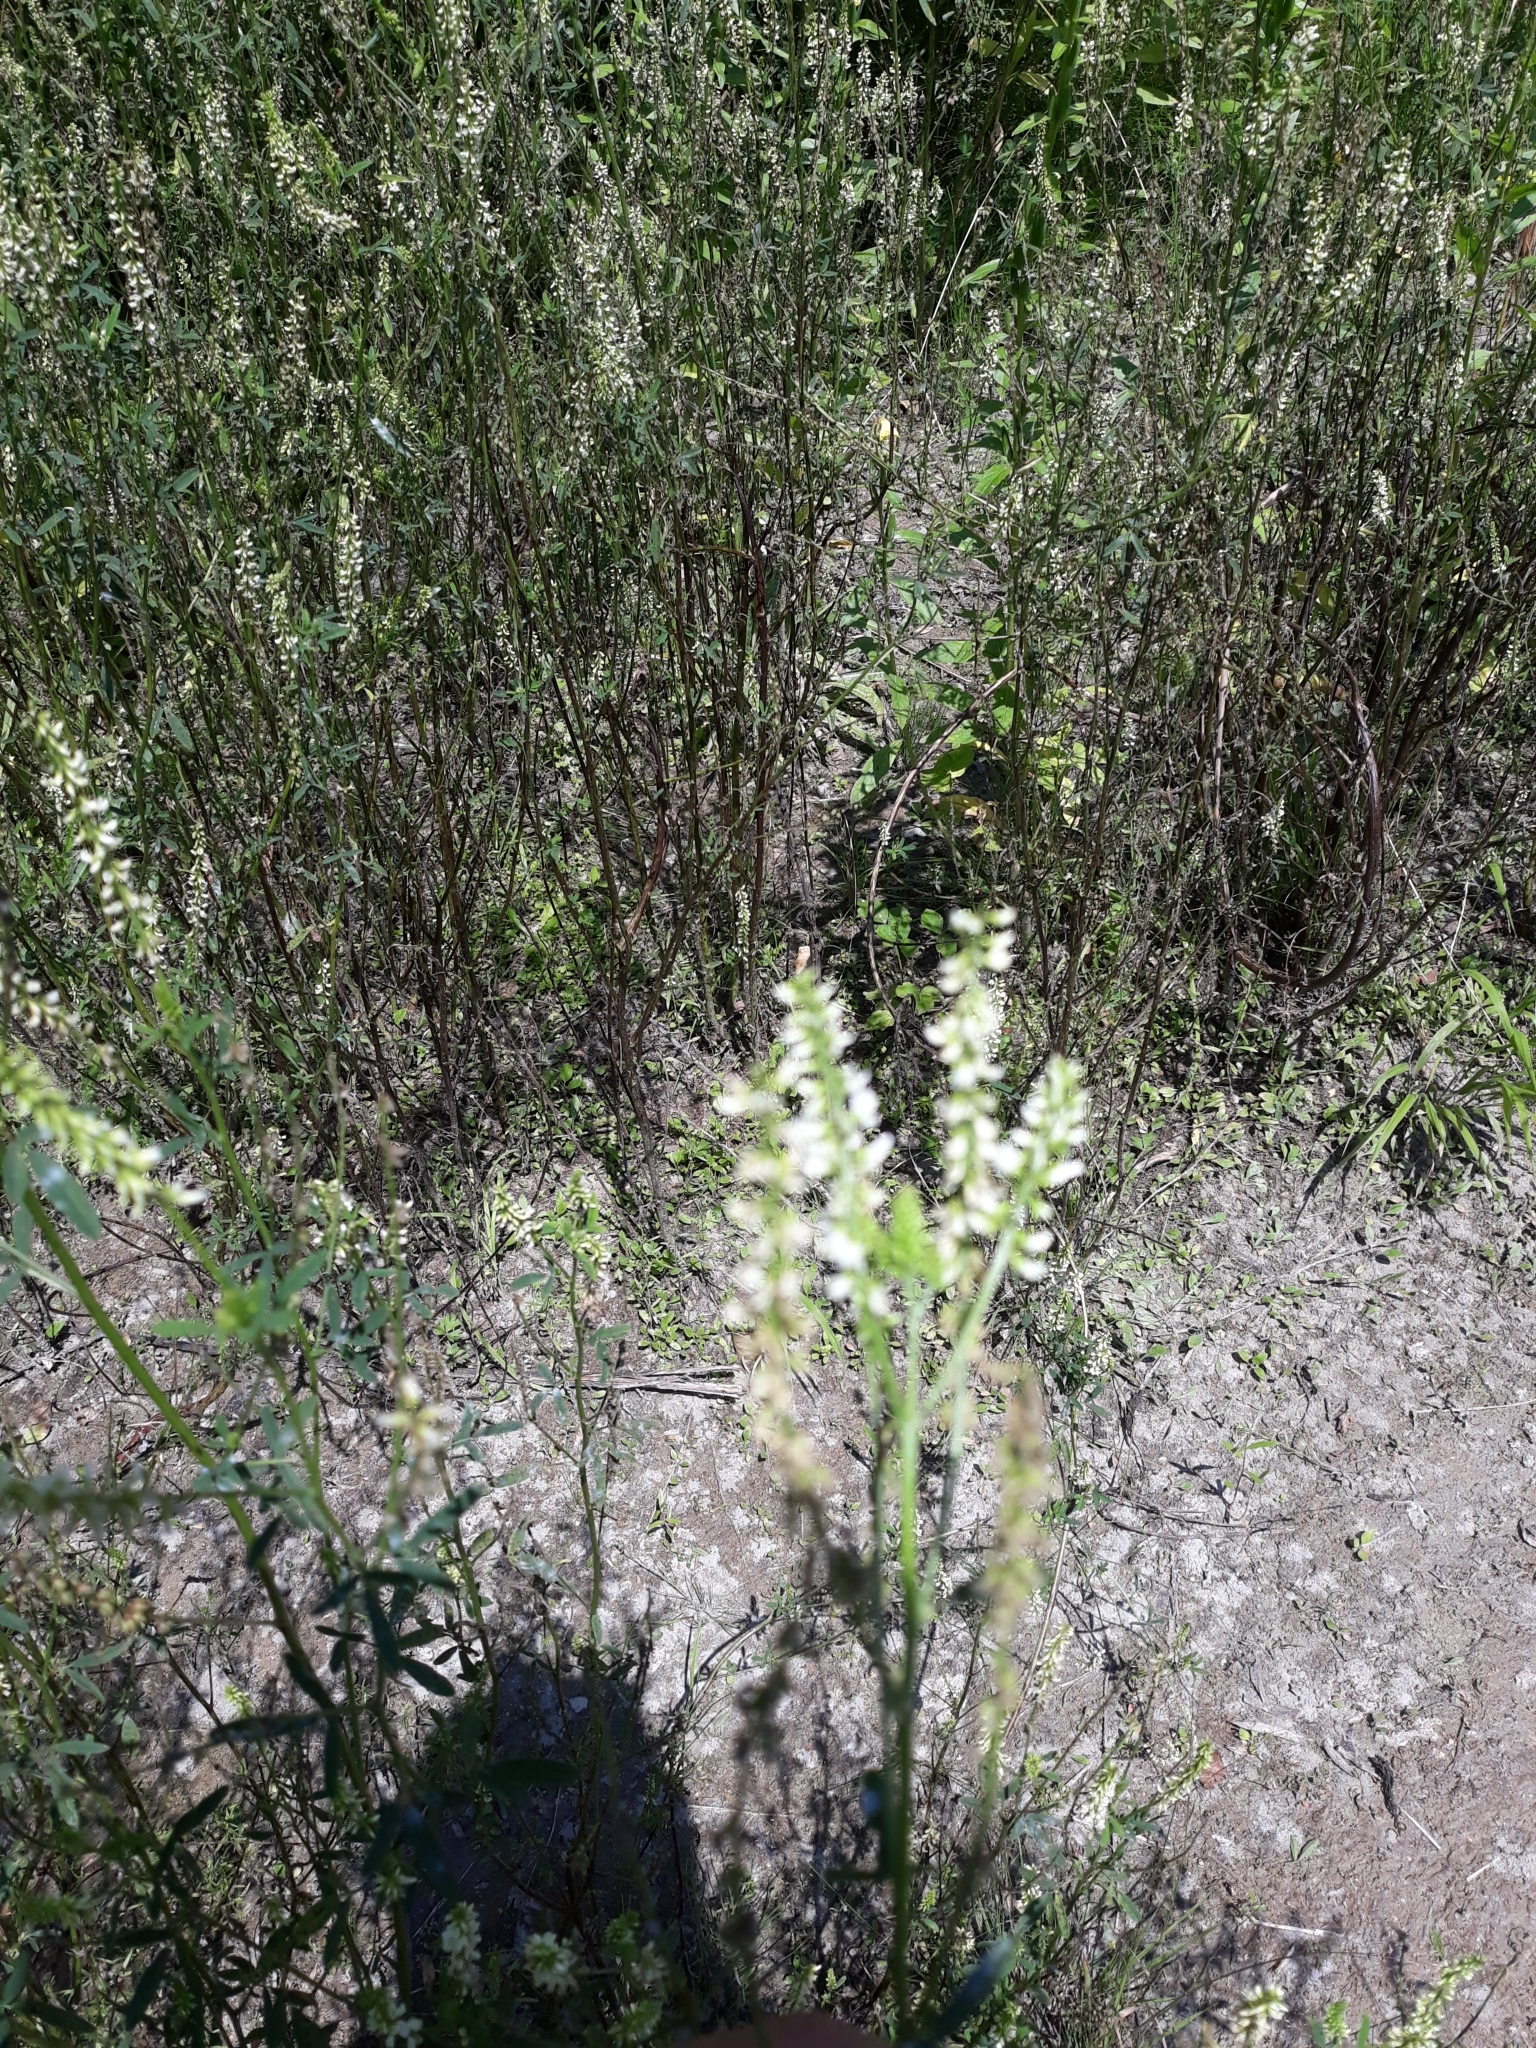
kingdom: Plantae
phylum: Tracheophyta
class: Magnoliopsida
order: Fabales
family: Fabaceae
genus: Melilotus
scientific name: Melilotus albus
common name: White melilot
